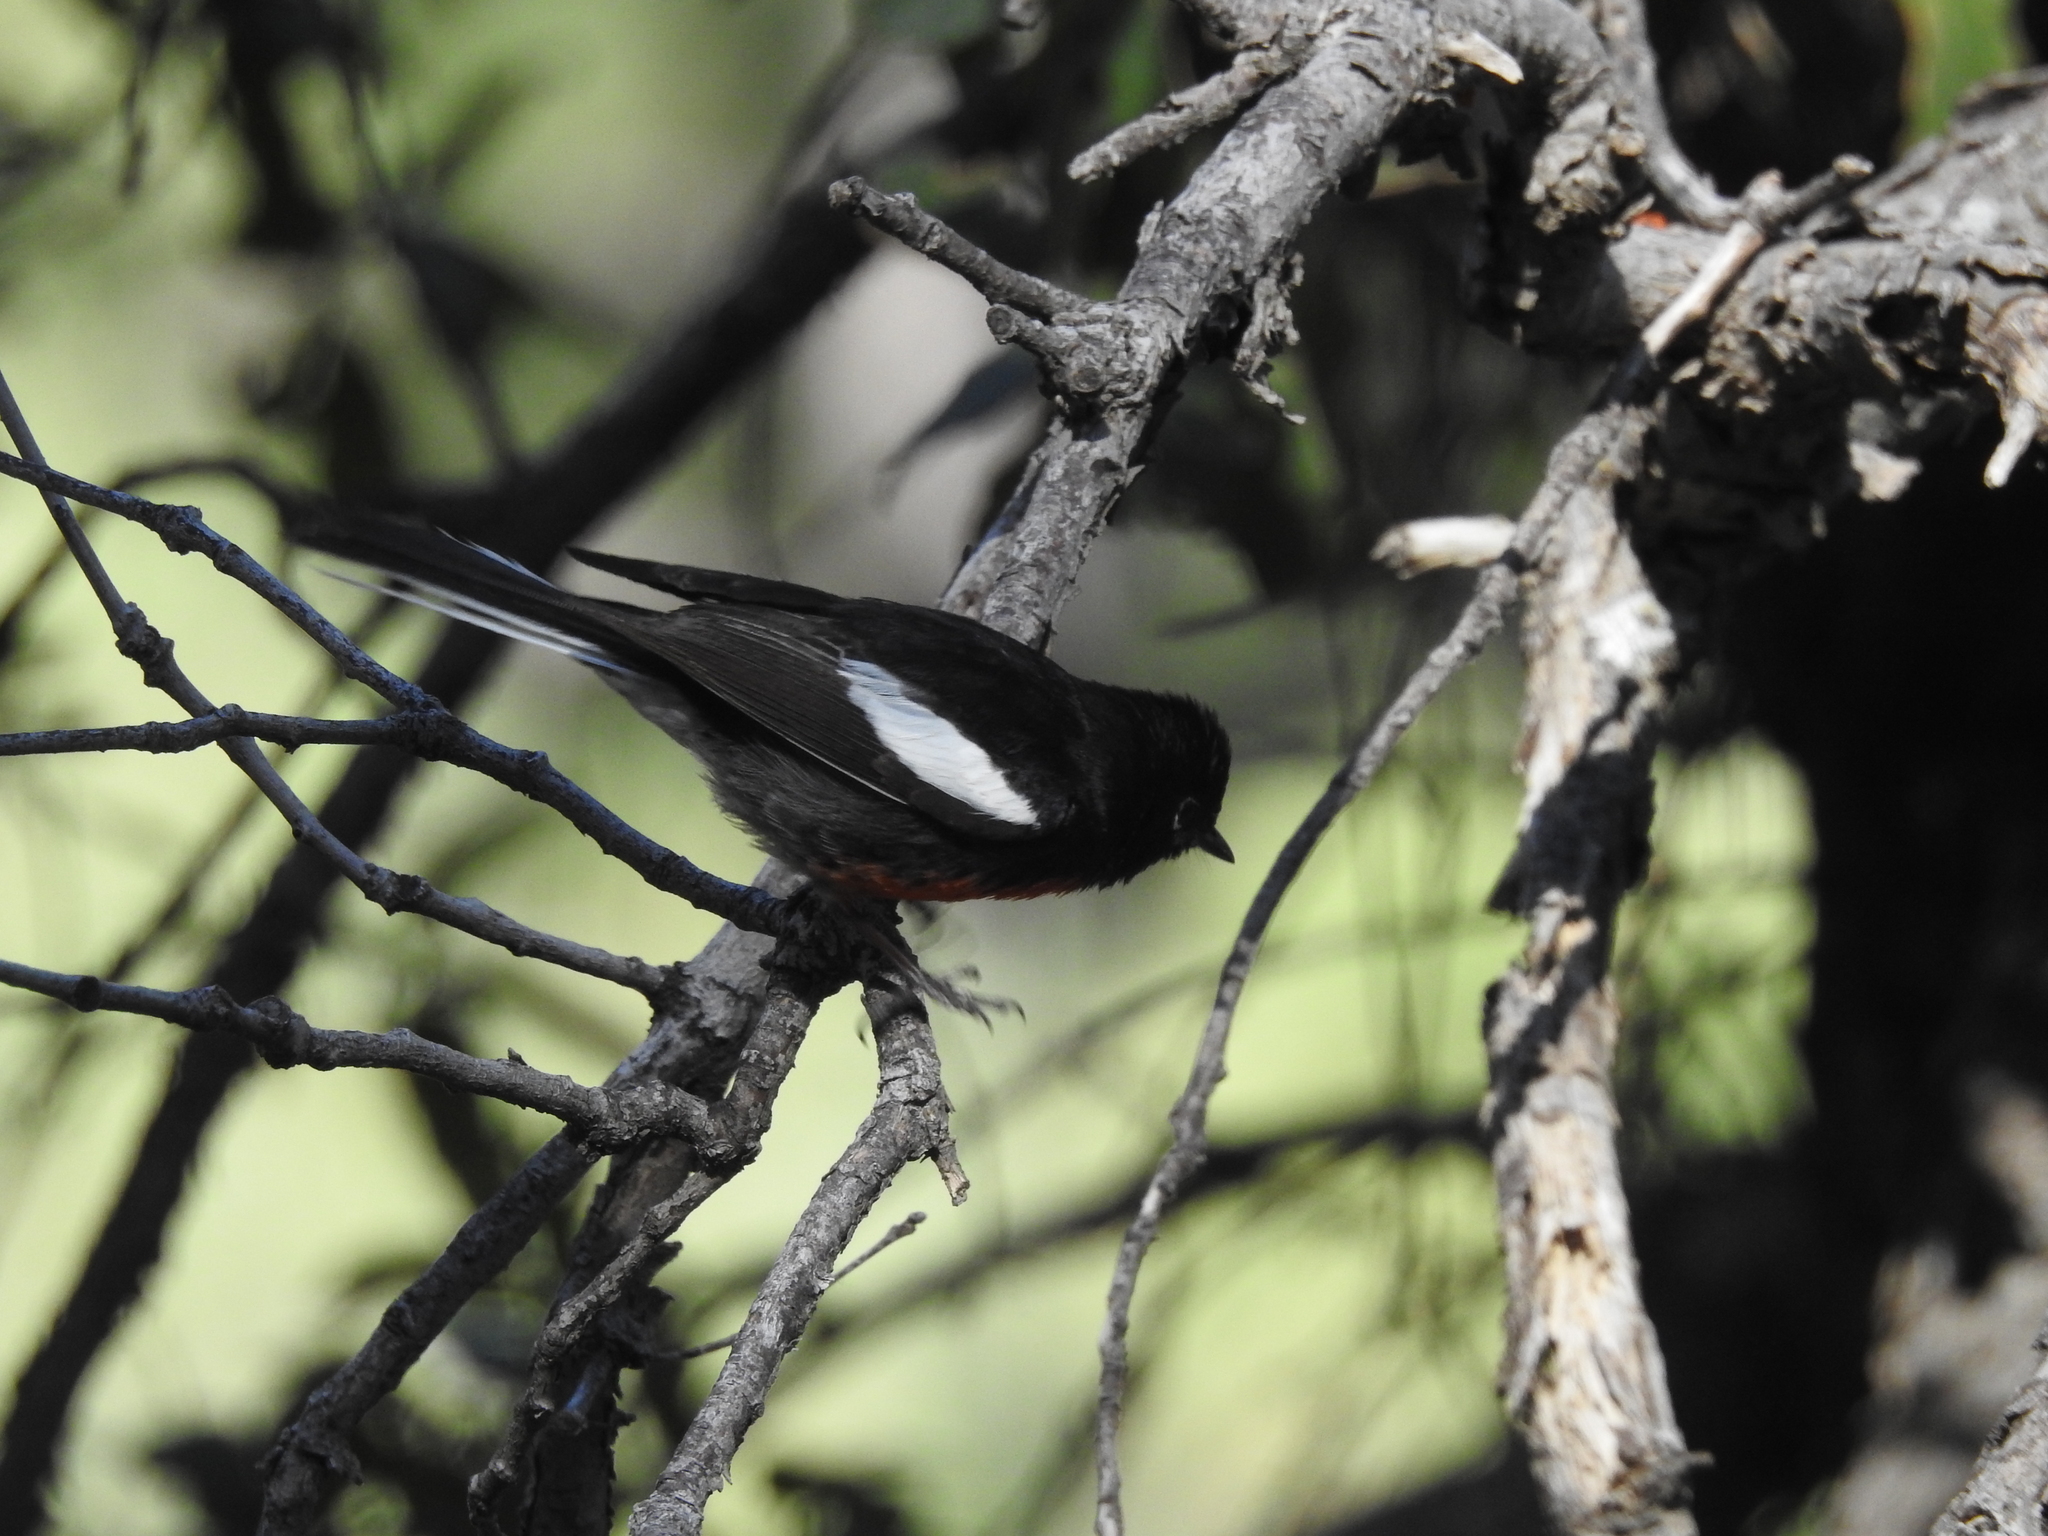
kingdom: Animalia
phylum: Chordata
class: Aves
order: Passeriformes
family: Parulidae
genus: Myioborus
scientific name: Myioborus pictus
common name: Painted whitestart
